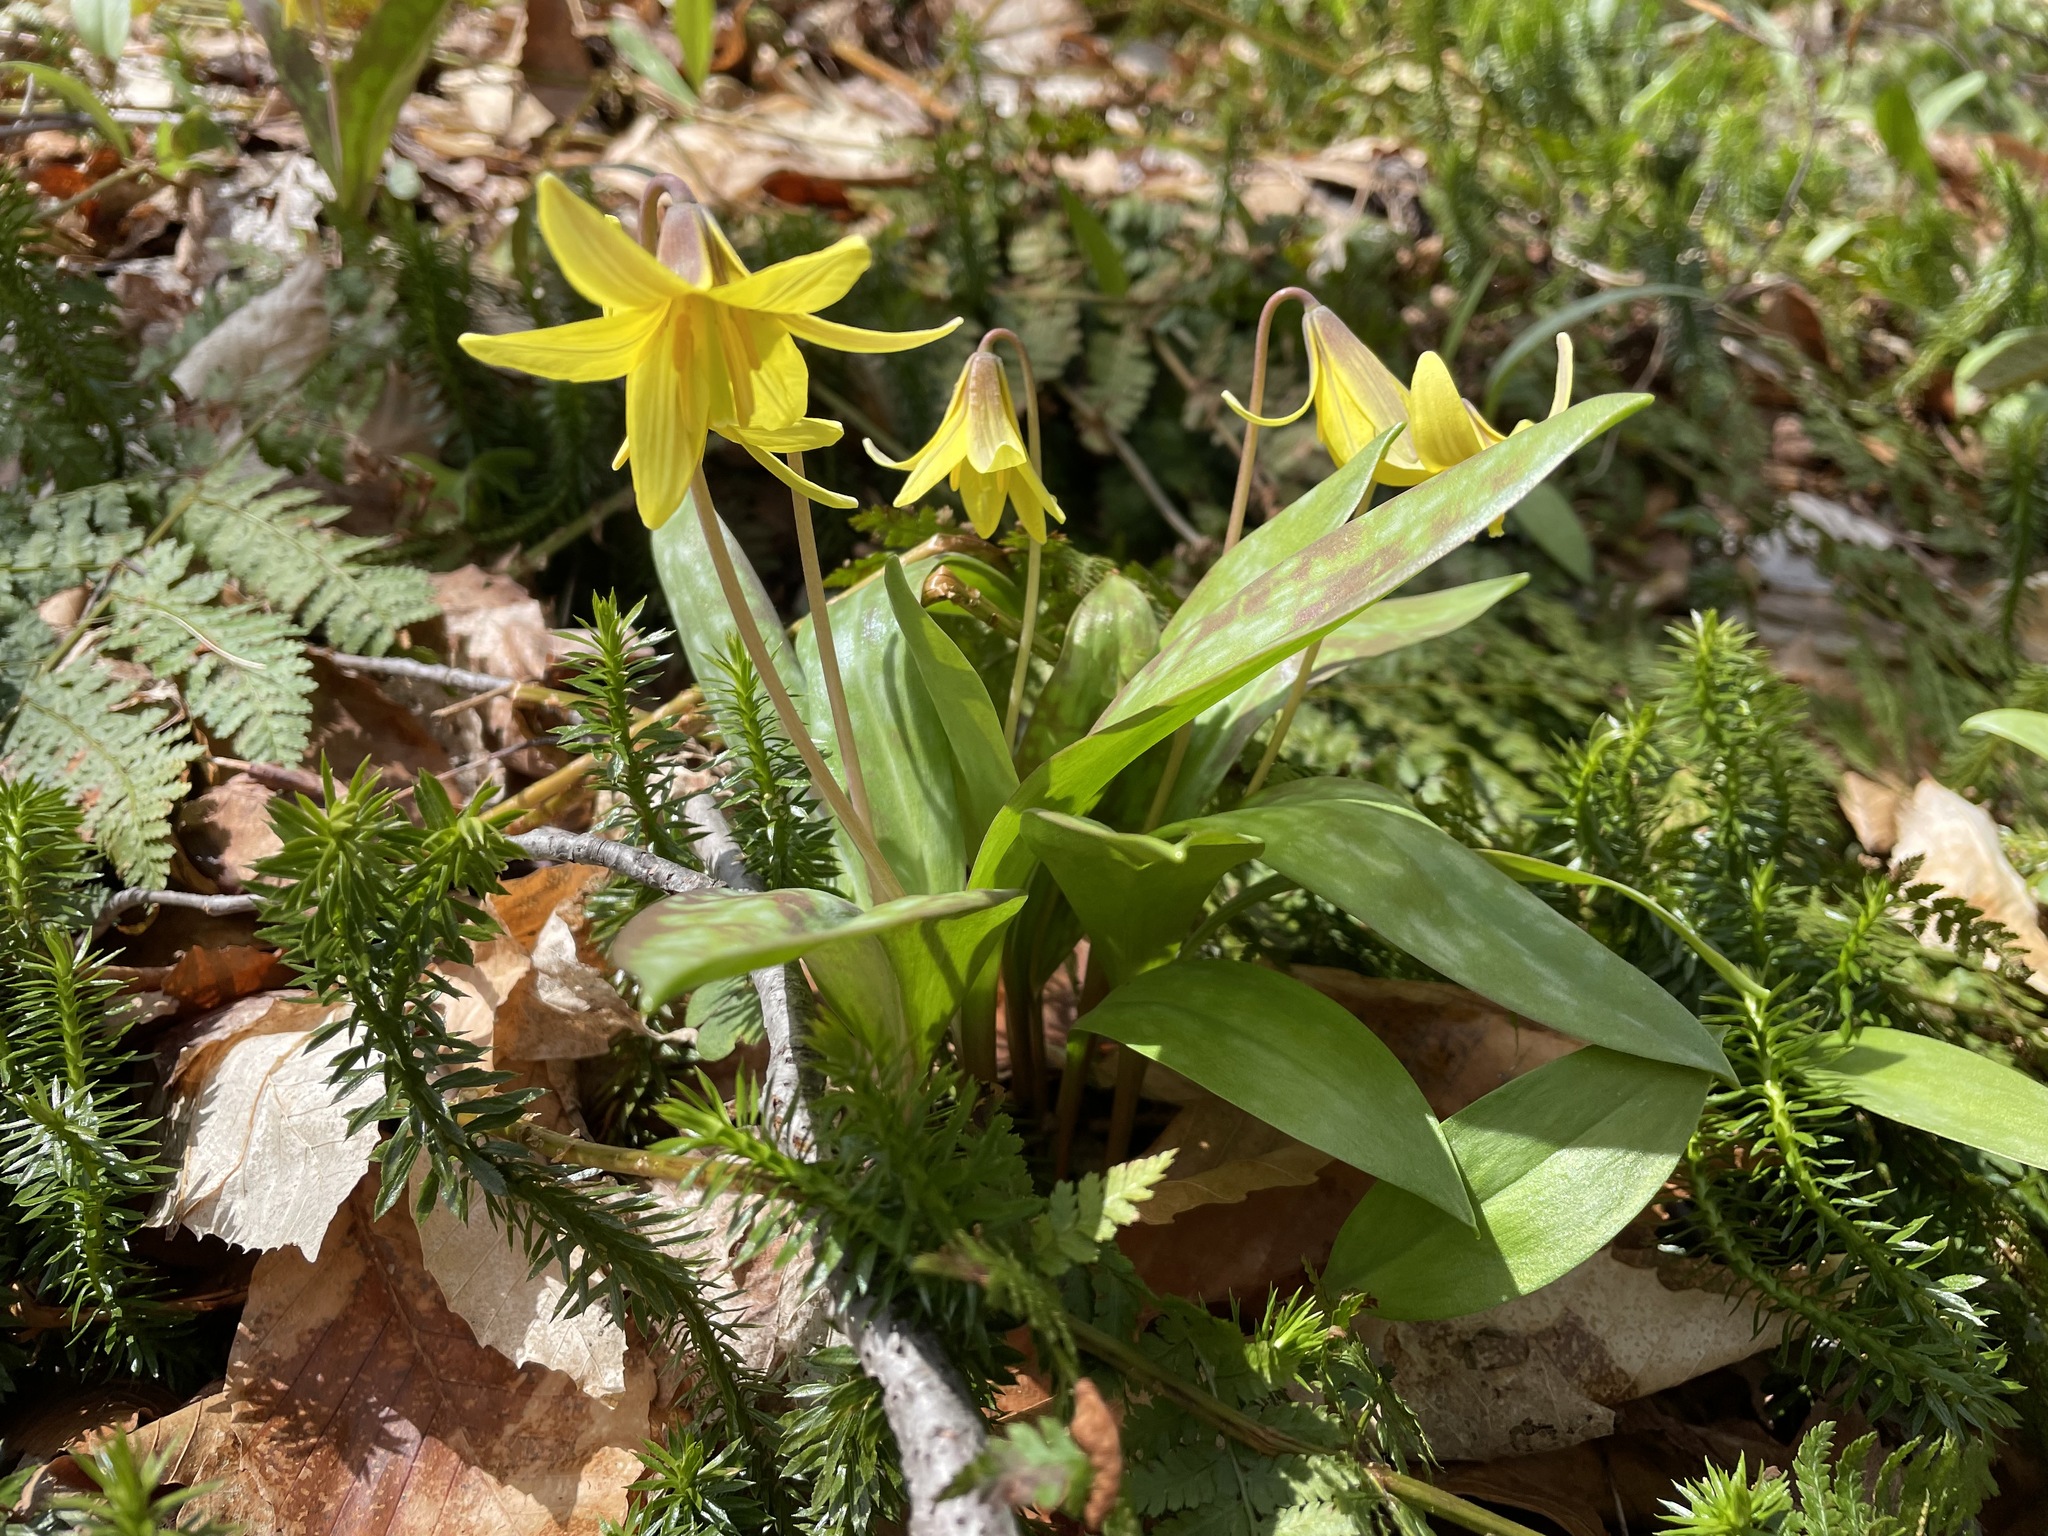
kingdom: Plantae
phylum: Tracheophyta
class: Liliopsida
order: Liliales
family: Liliaceae
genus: Erythronium
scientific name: Erythronium americanum
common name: Yellow adder's-tongue
